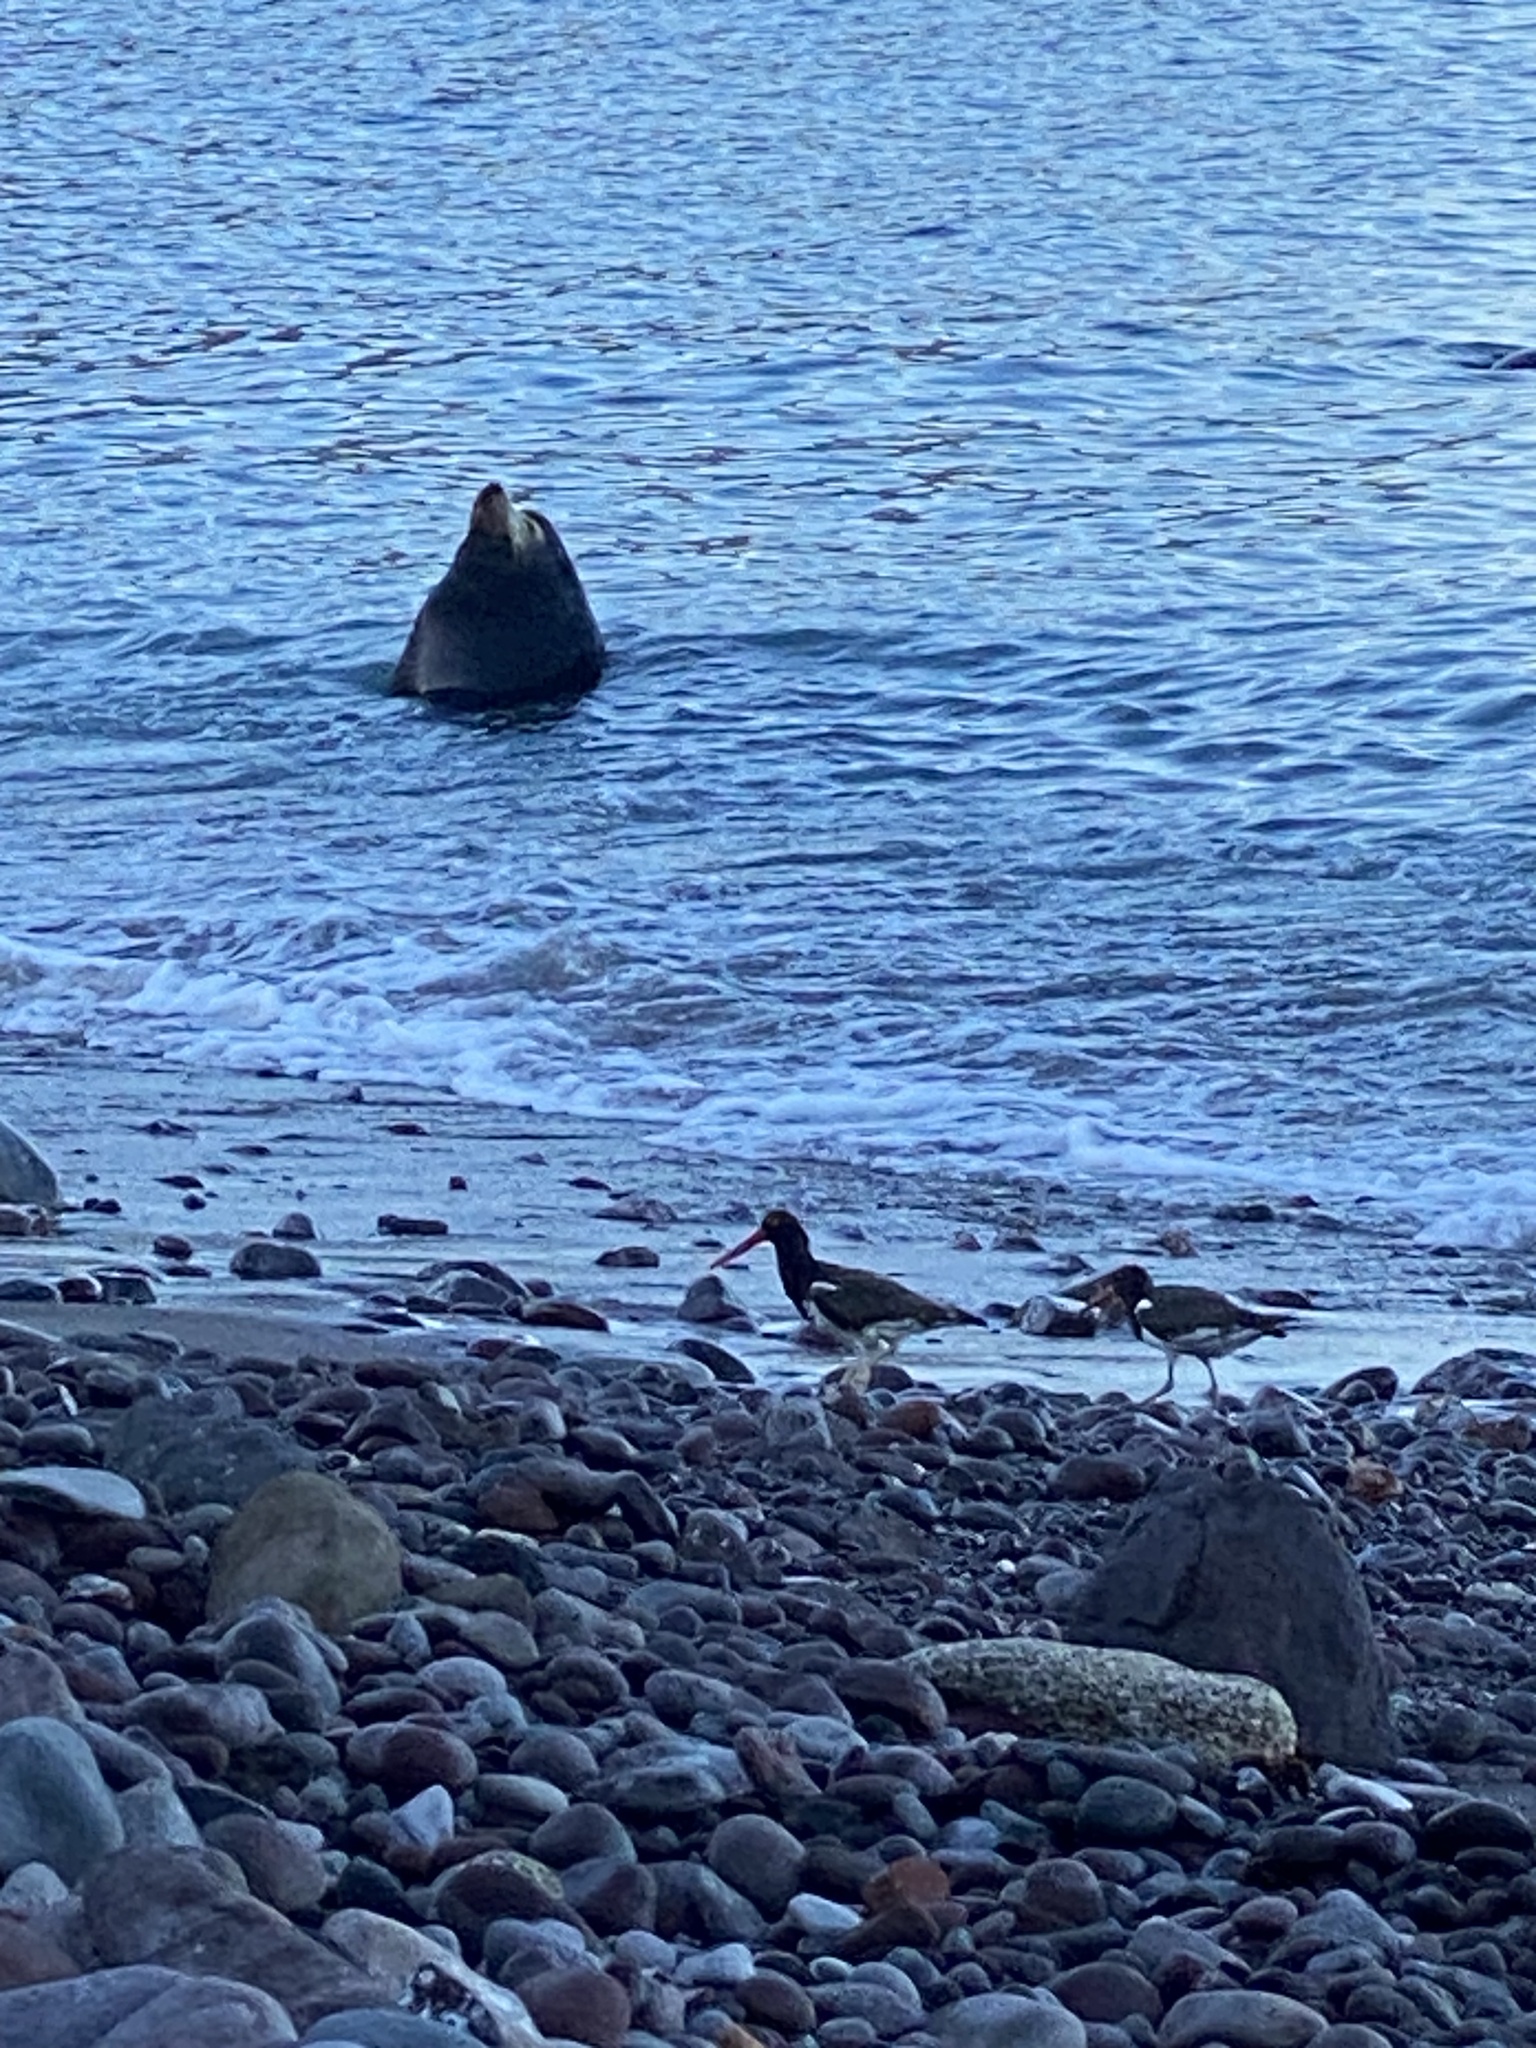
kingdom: Animalia
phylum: Chordata
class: Aves
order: Charadriiformes
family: Haematopodidae
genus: Haematopus
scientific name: Haematopus palliatus
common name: American oystercatcher
